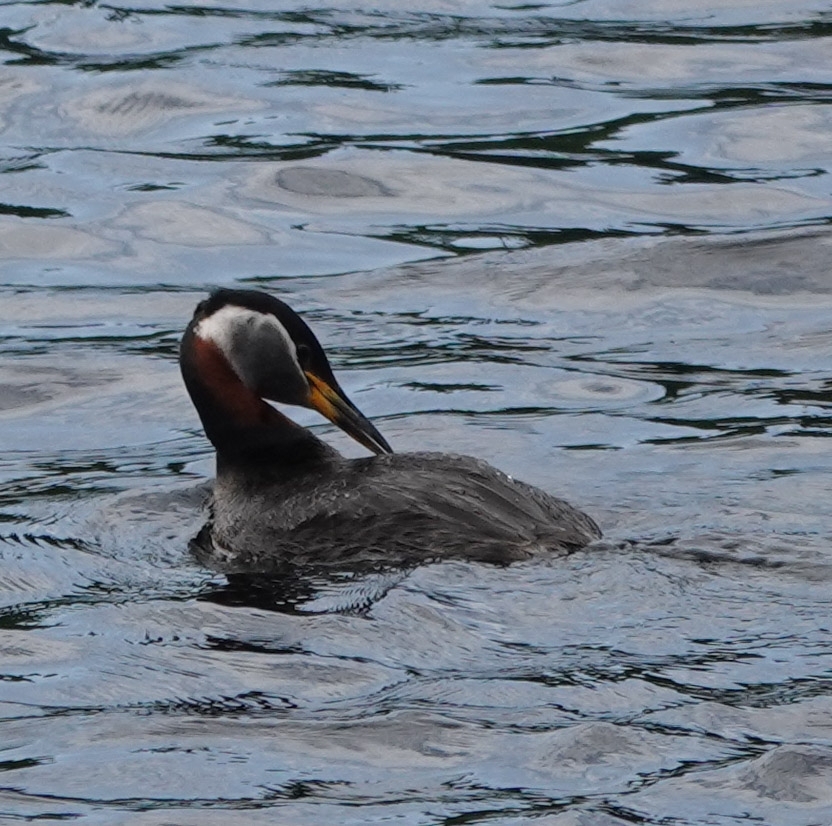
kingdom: Animalia
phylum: Chordata
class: Aves
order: Podicipediformes
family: Podicipedidae
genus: Podiceps
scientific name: Podiceps grisegena
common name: Red-necked grebe
